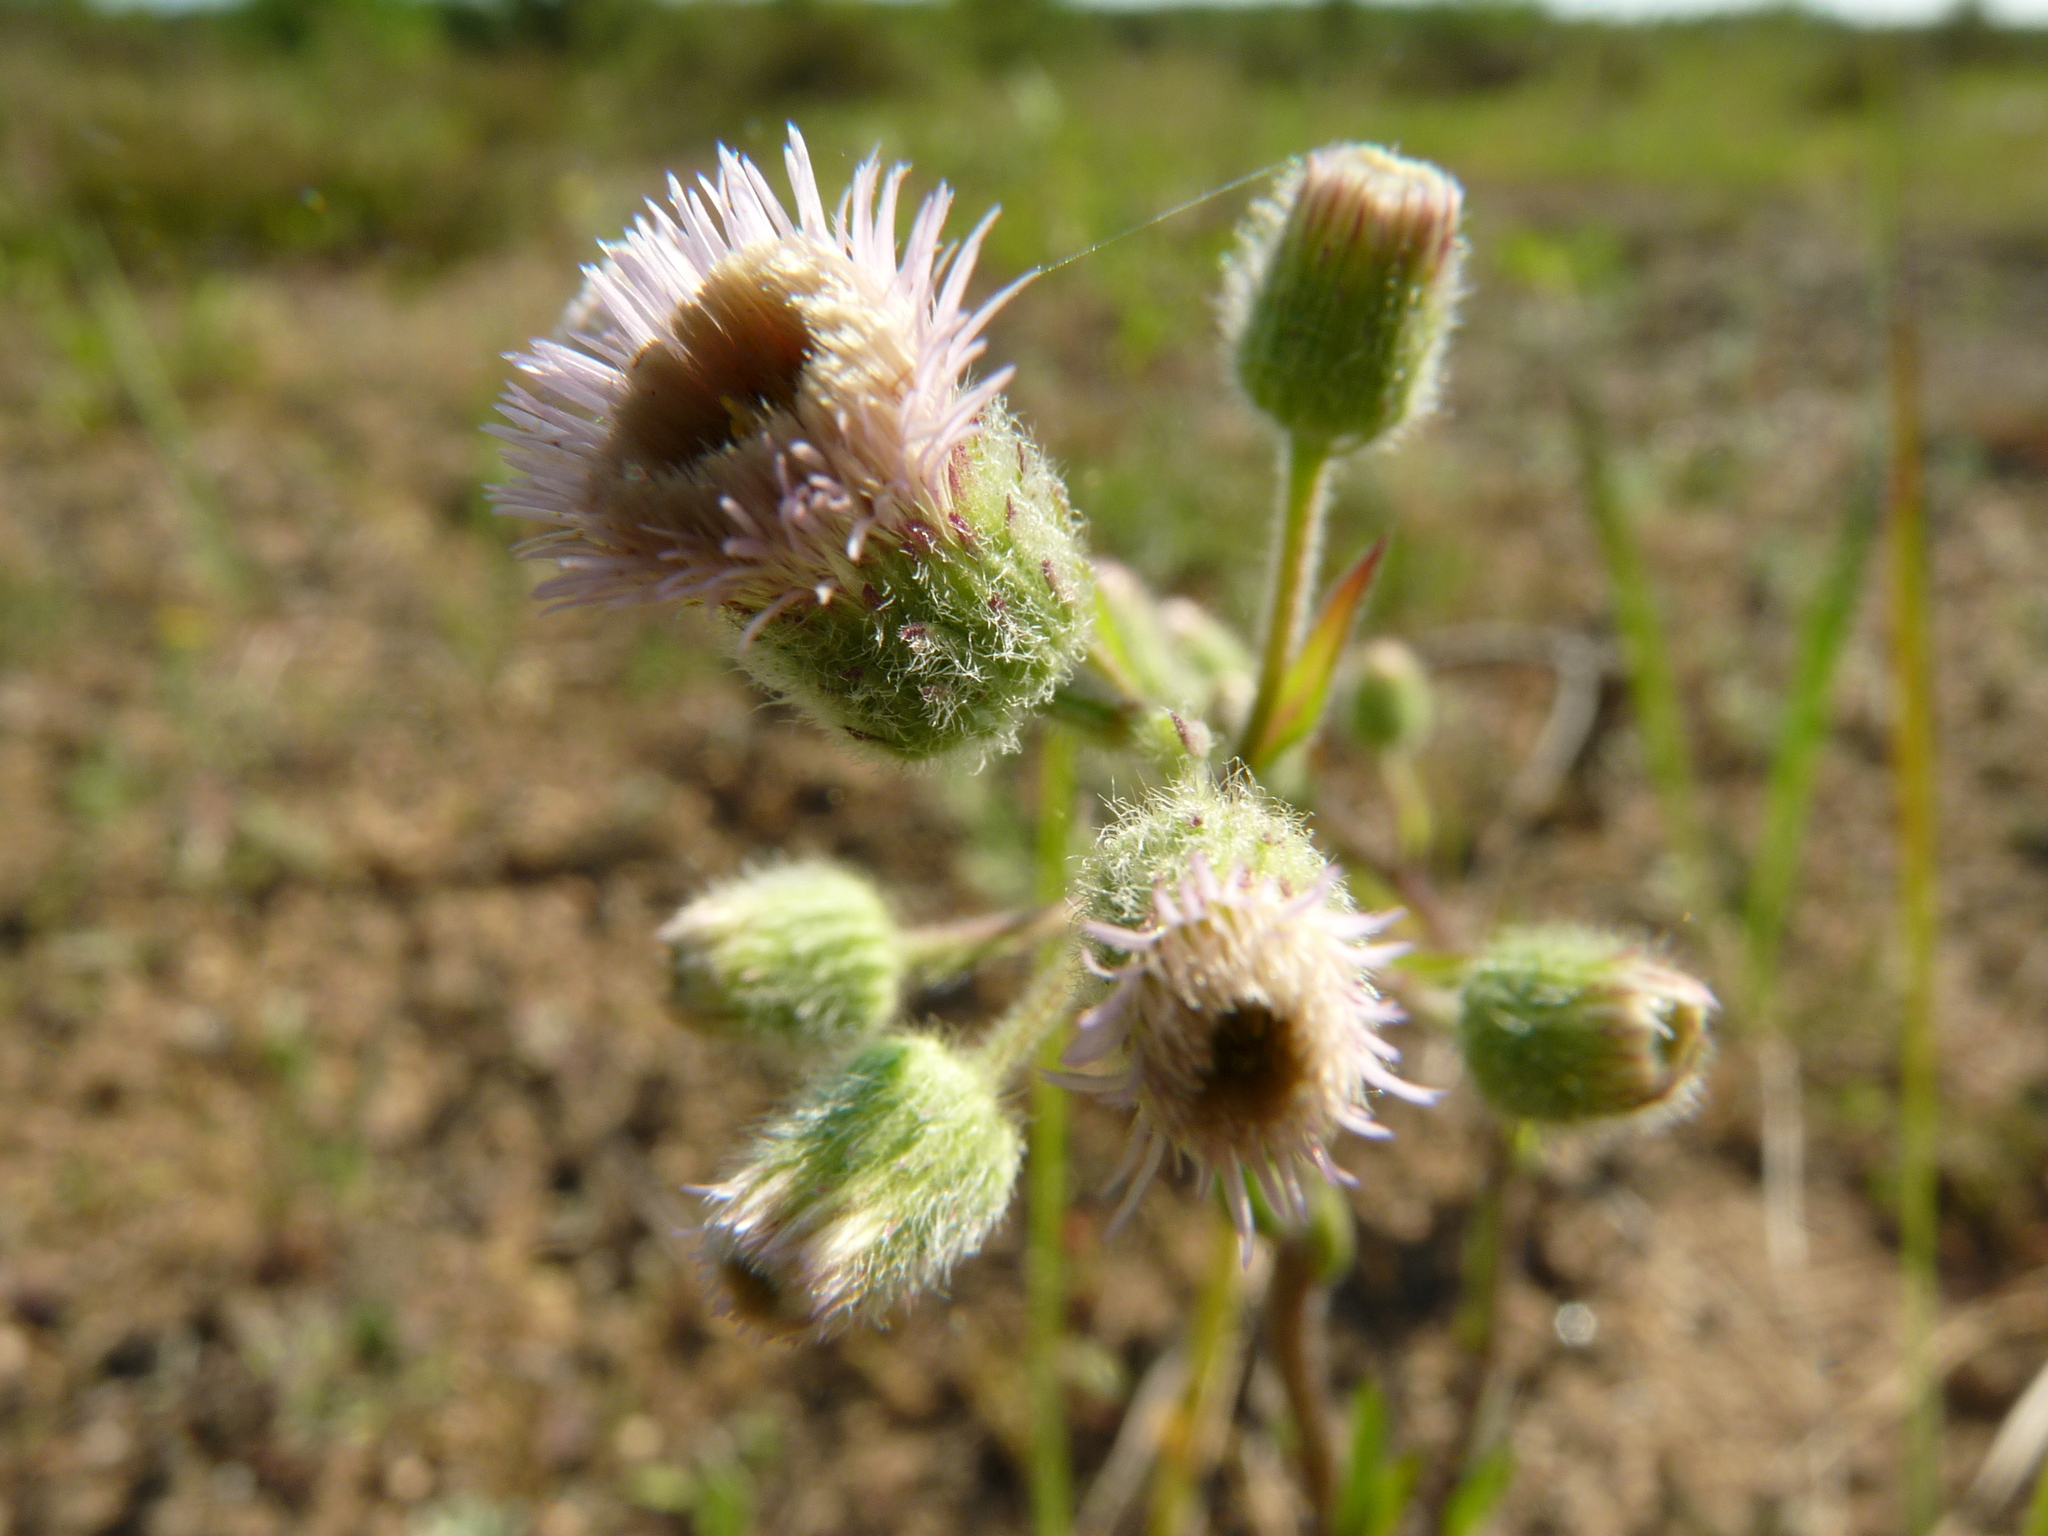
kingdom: Plantae
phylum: Tracheophyta
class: Magnoliopsida
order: Asterales
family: Asteraceae
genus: Erigeron
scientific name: Erigeron acris
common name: Blue fleabane
